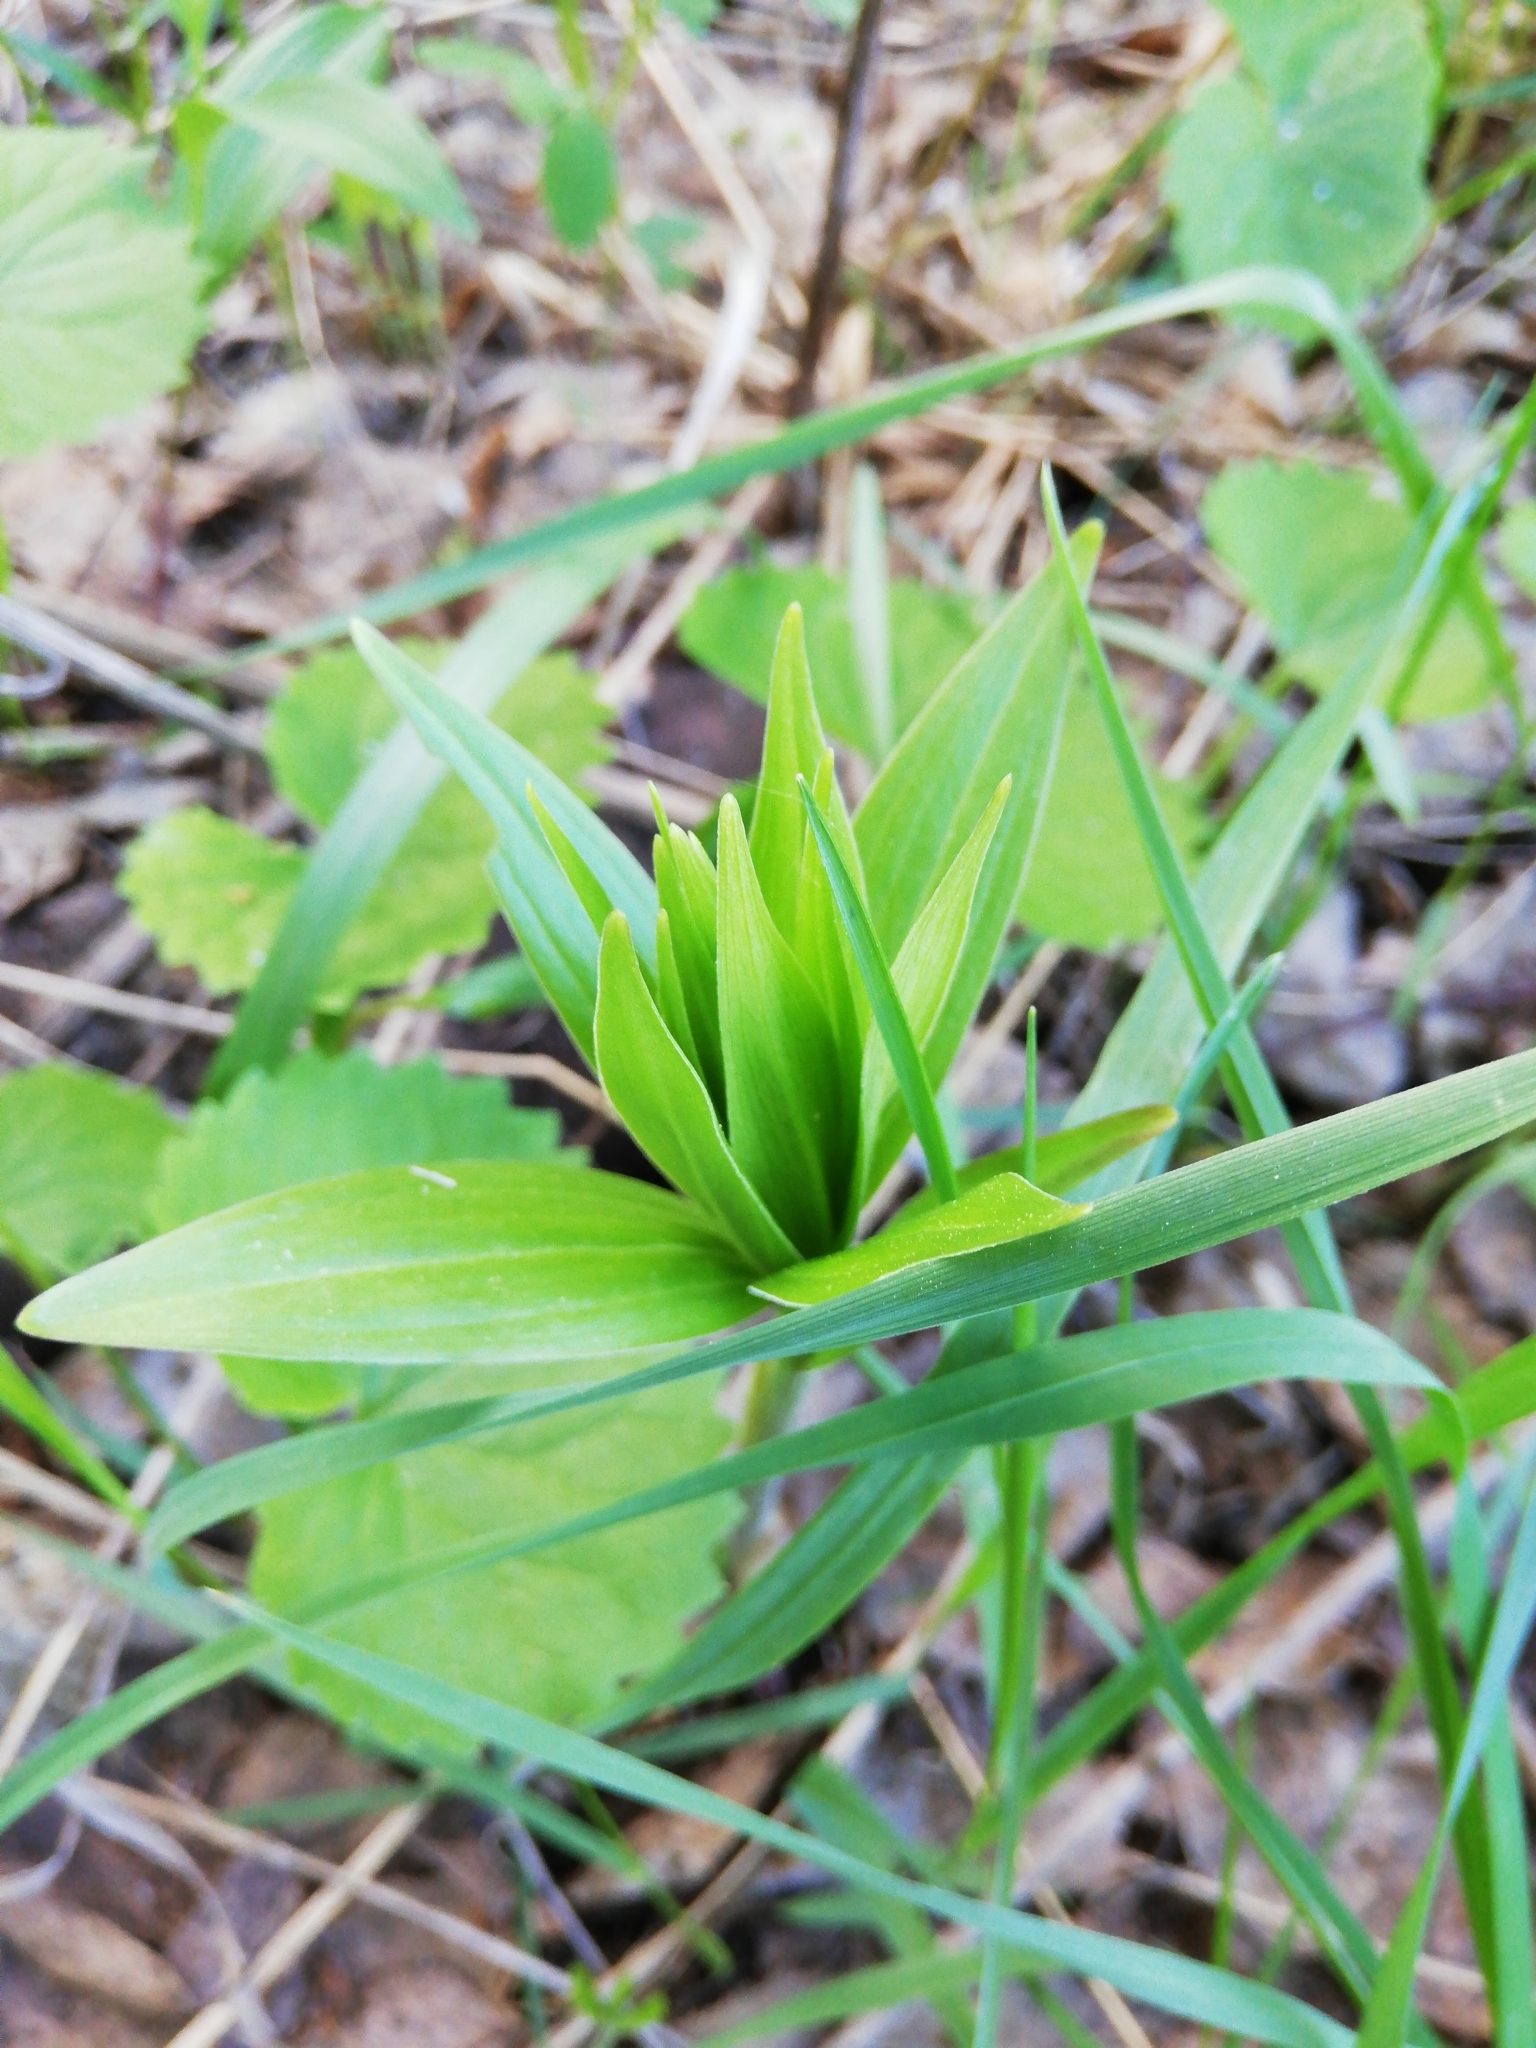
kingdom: Plantae
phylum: Tracheophyta
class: Liliopsida
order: Liliales
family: Liliaceae
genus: Lilium
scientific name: Lilium martagon
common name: Martagon lily
